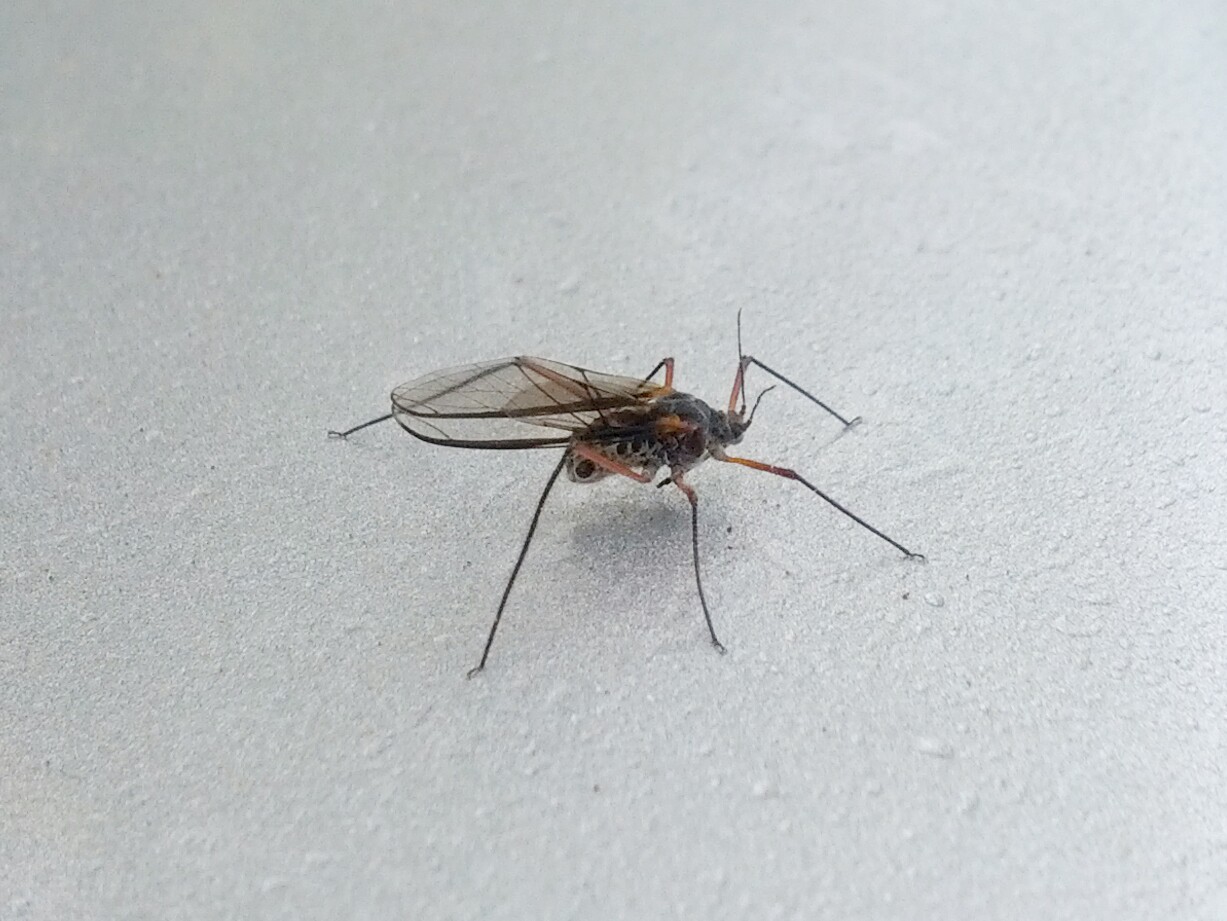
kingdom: Animalia
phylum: Arthropoda
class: Insecta
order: Hemiptera
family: Aphididae
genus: Longistigma
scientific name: Longistigma caryae
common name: Giant bark aphid
